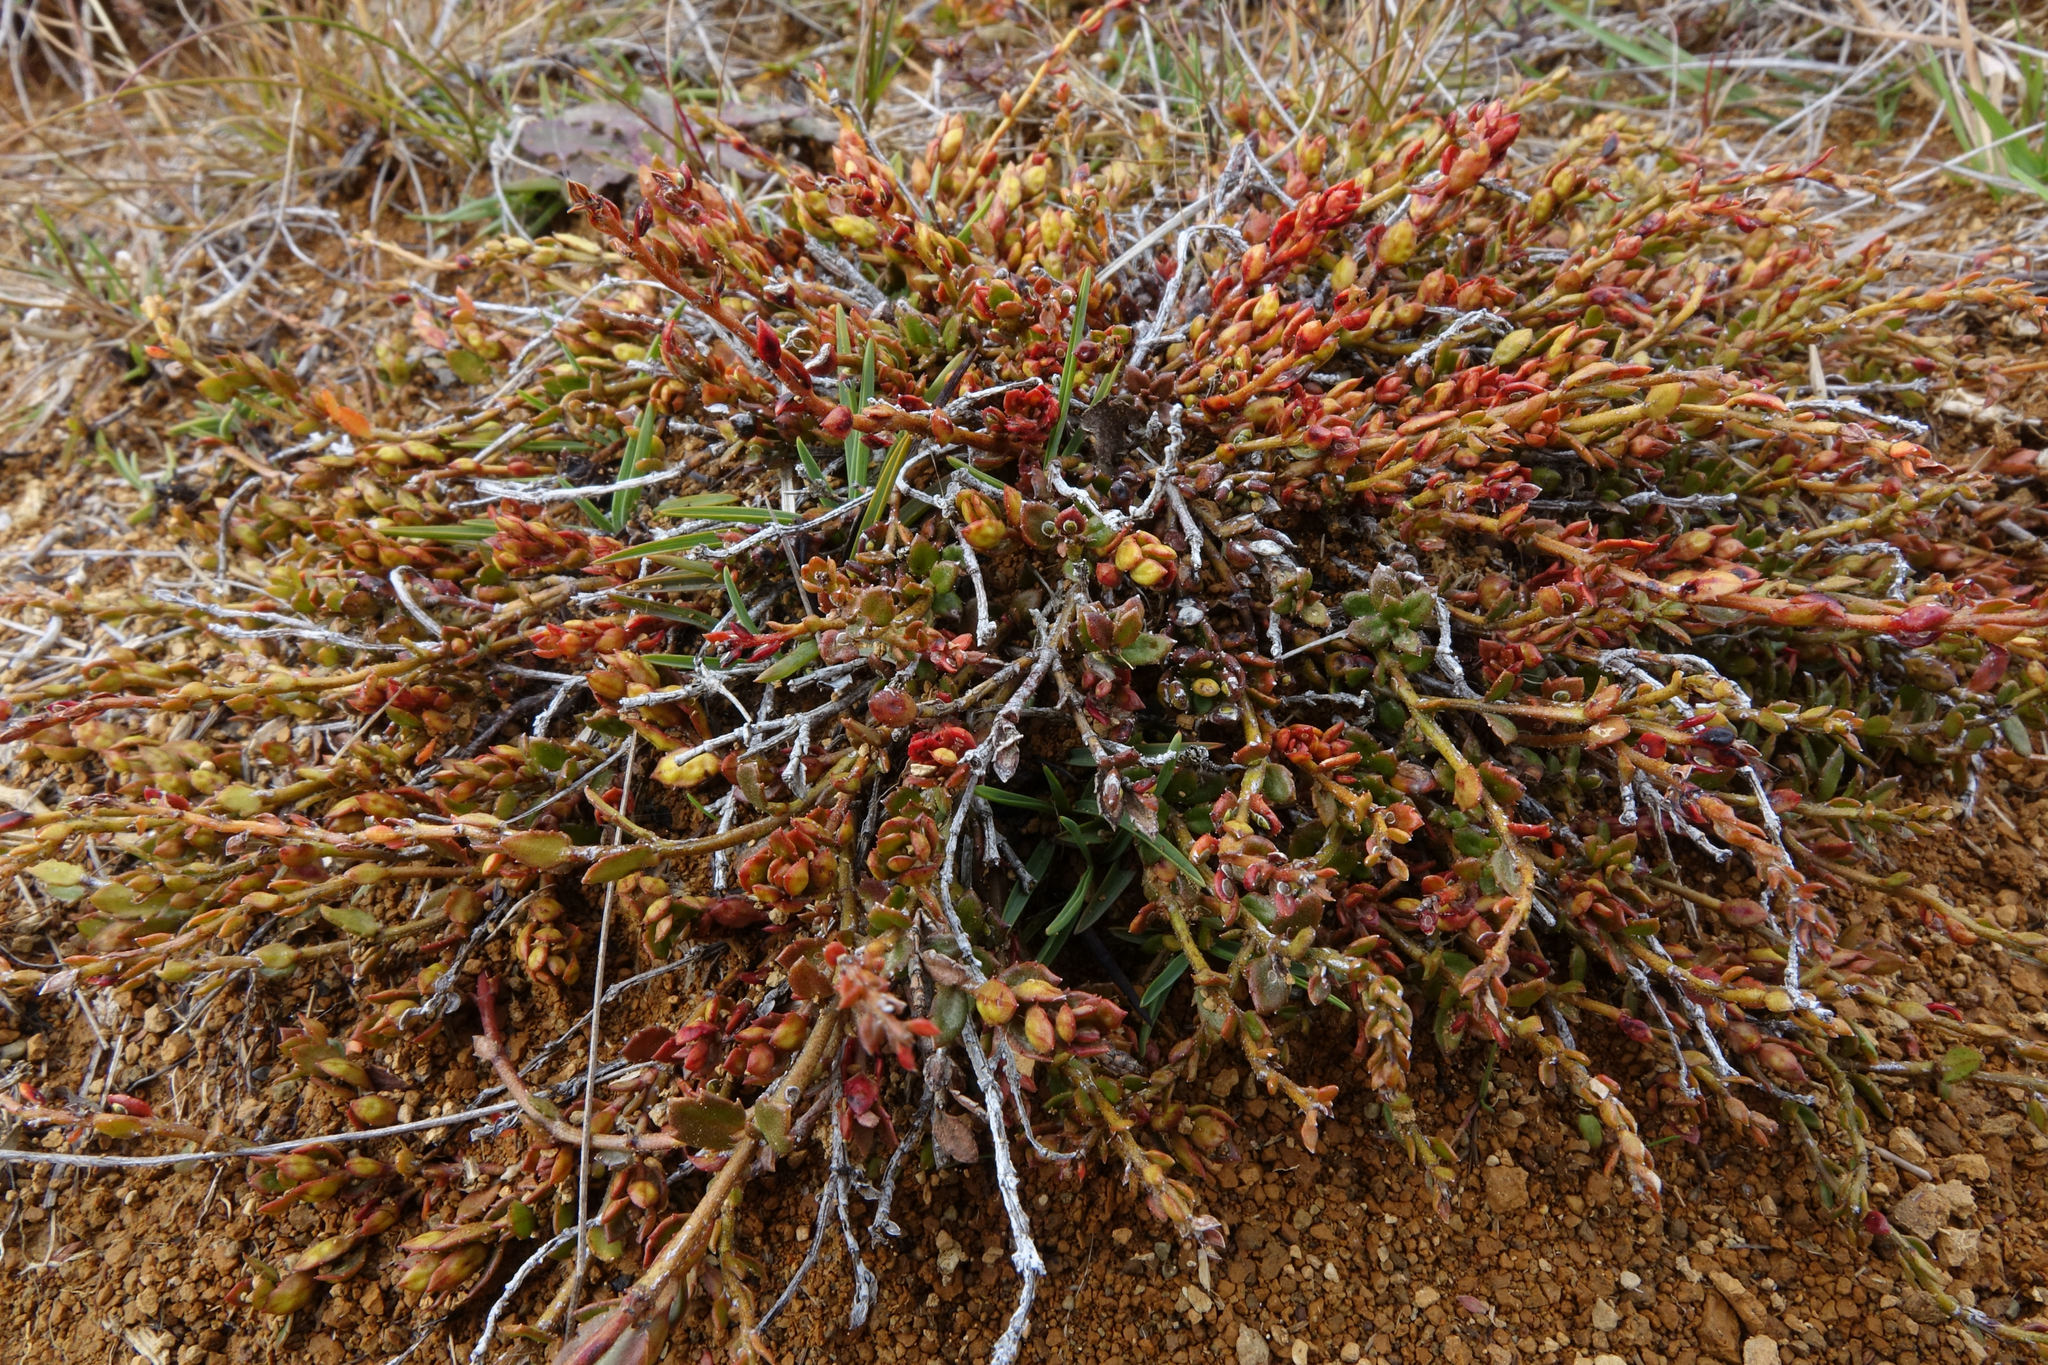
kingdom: Plantae
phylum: Tracheophyta
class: Magnoliopsida
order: Saxifragales
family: Haloragaceae
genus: Gonocarpus
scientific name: Gonocarpus incanus
